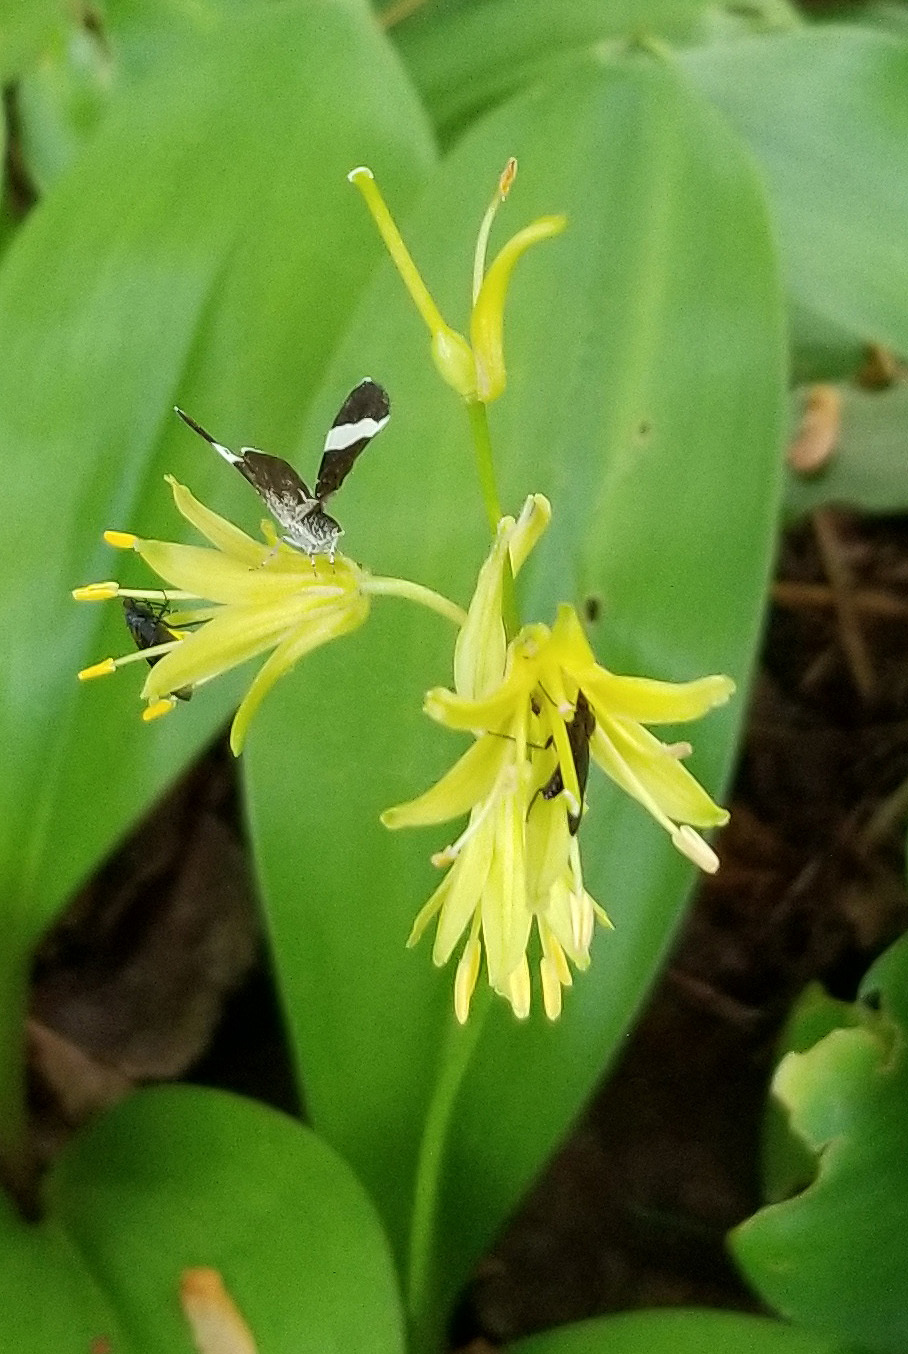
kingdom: Animalia
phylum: Arthropoda
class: Insecta
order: Lepidoptera
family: Geometridae
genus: Trichodezia
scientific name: Trichodezia albovittata
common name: White striped black
